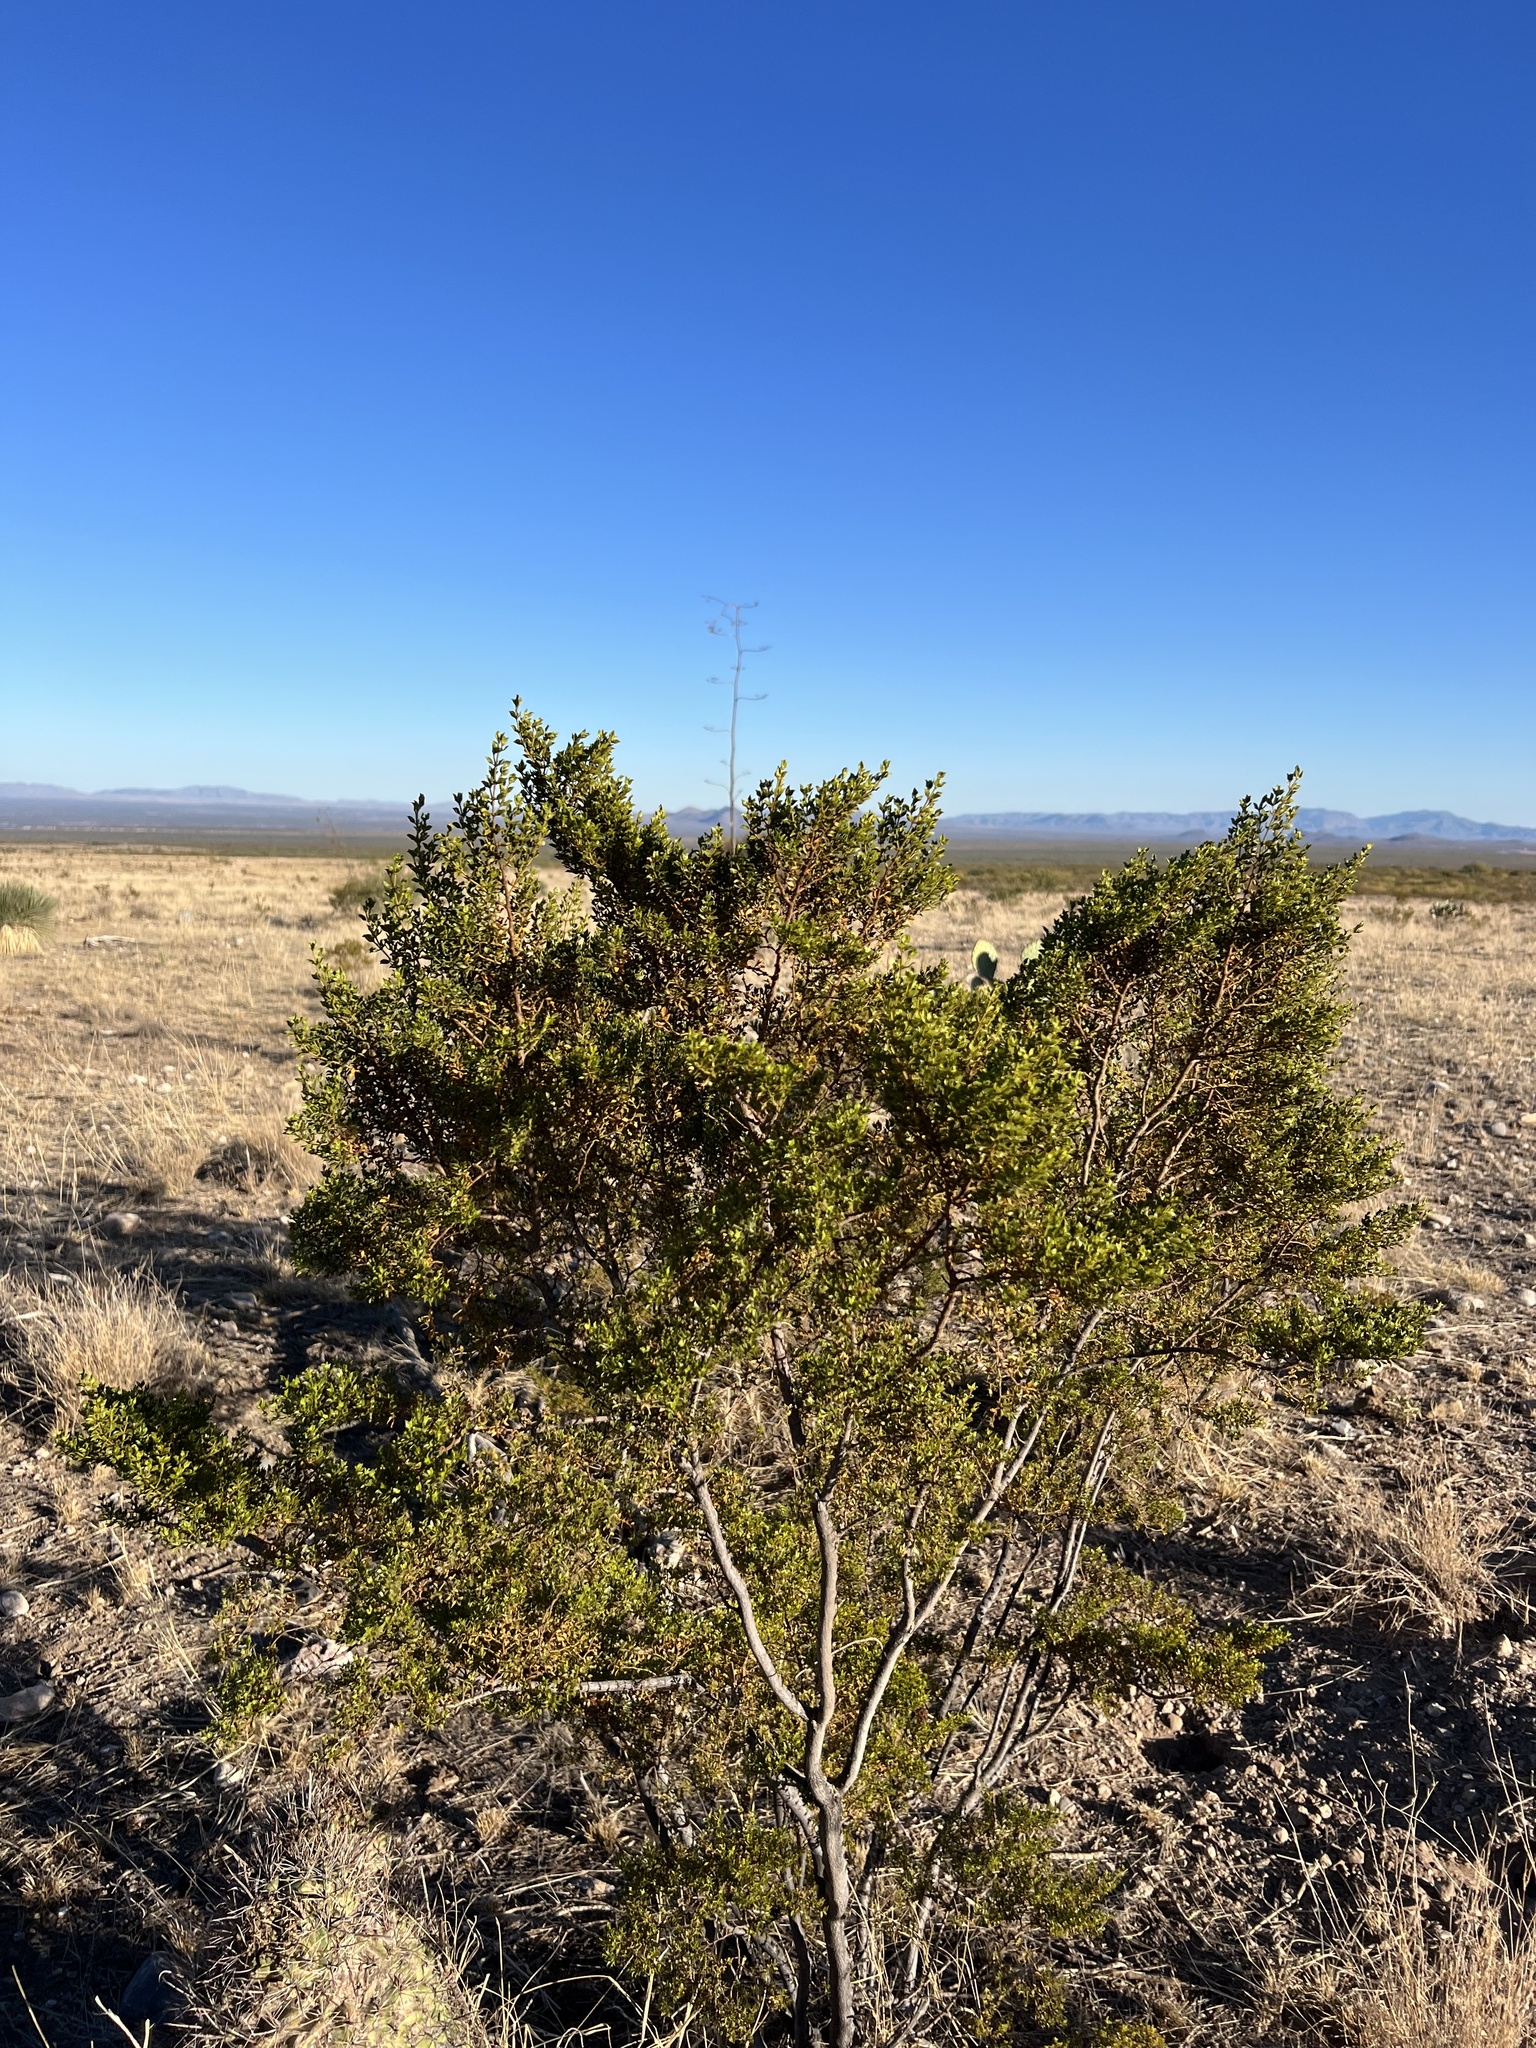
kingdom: Plantae
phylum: Tracheophyta
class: Magnoliopsida
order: Zygophyllales
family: Zygophyllaceae
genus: Larrea
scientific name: Larrea tridentata
